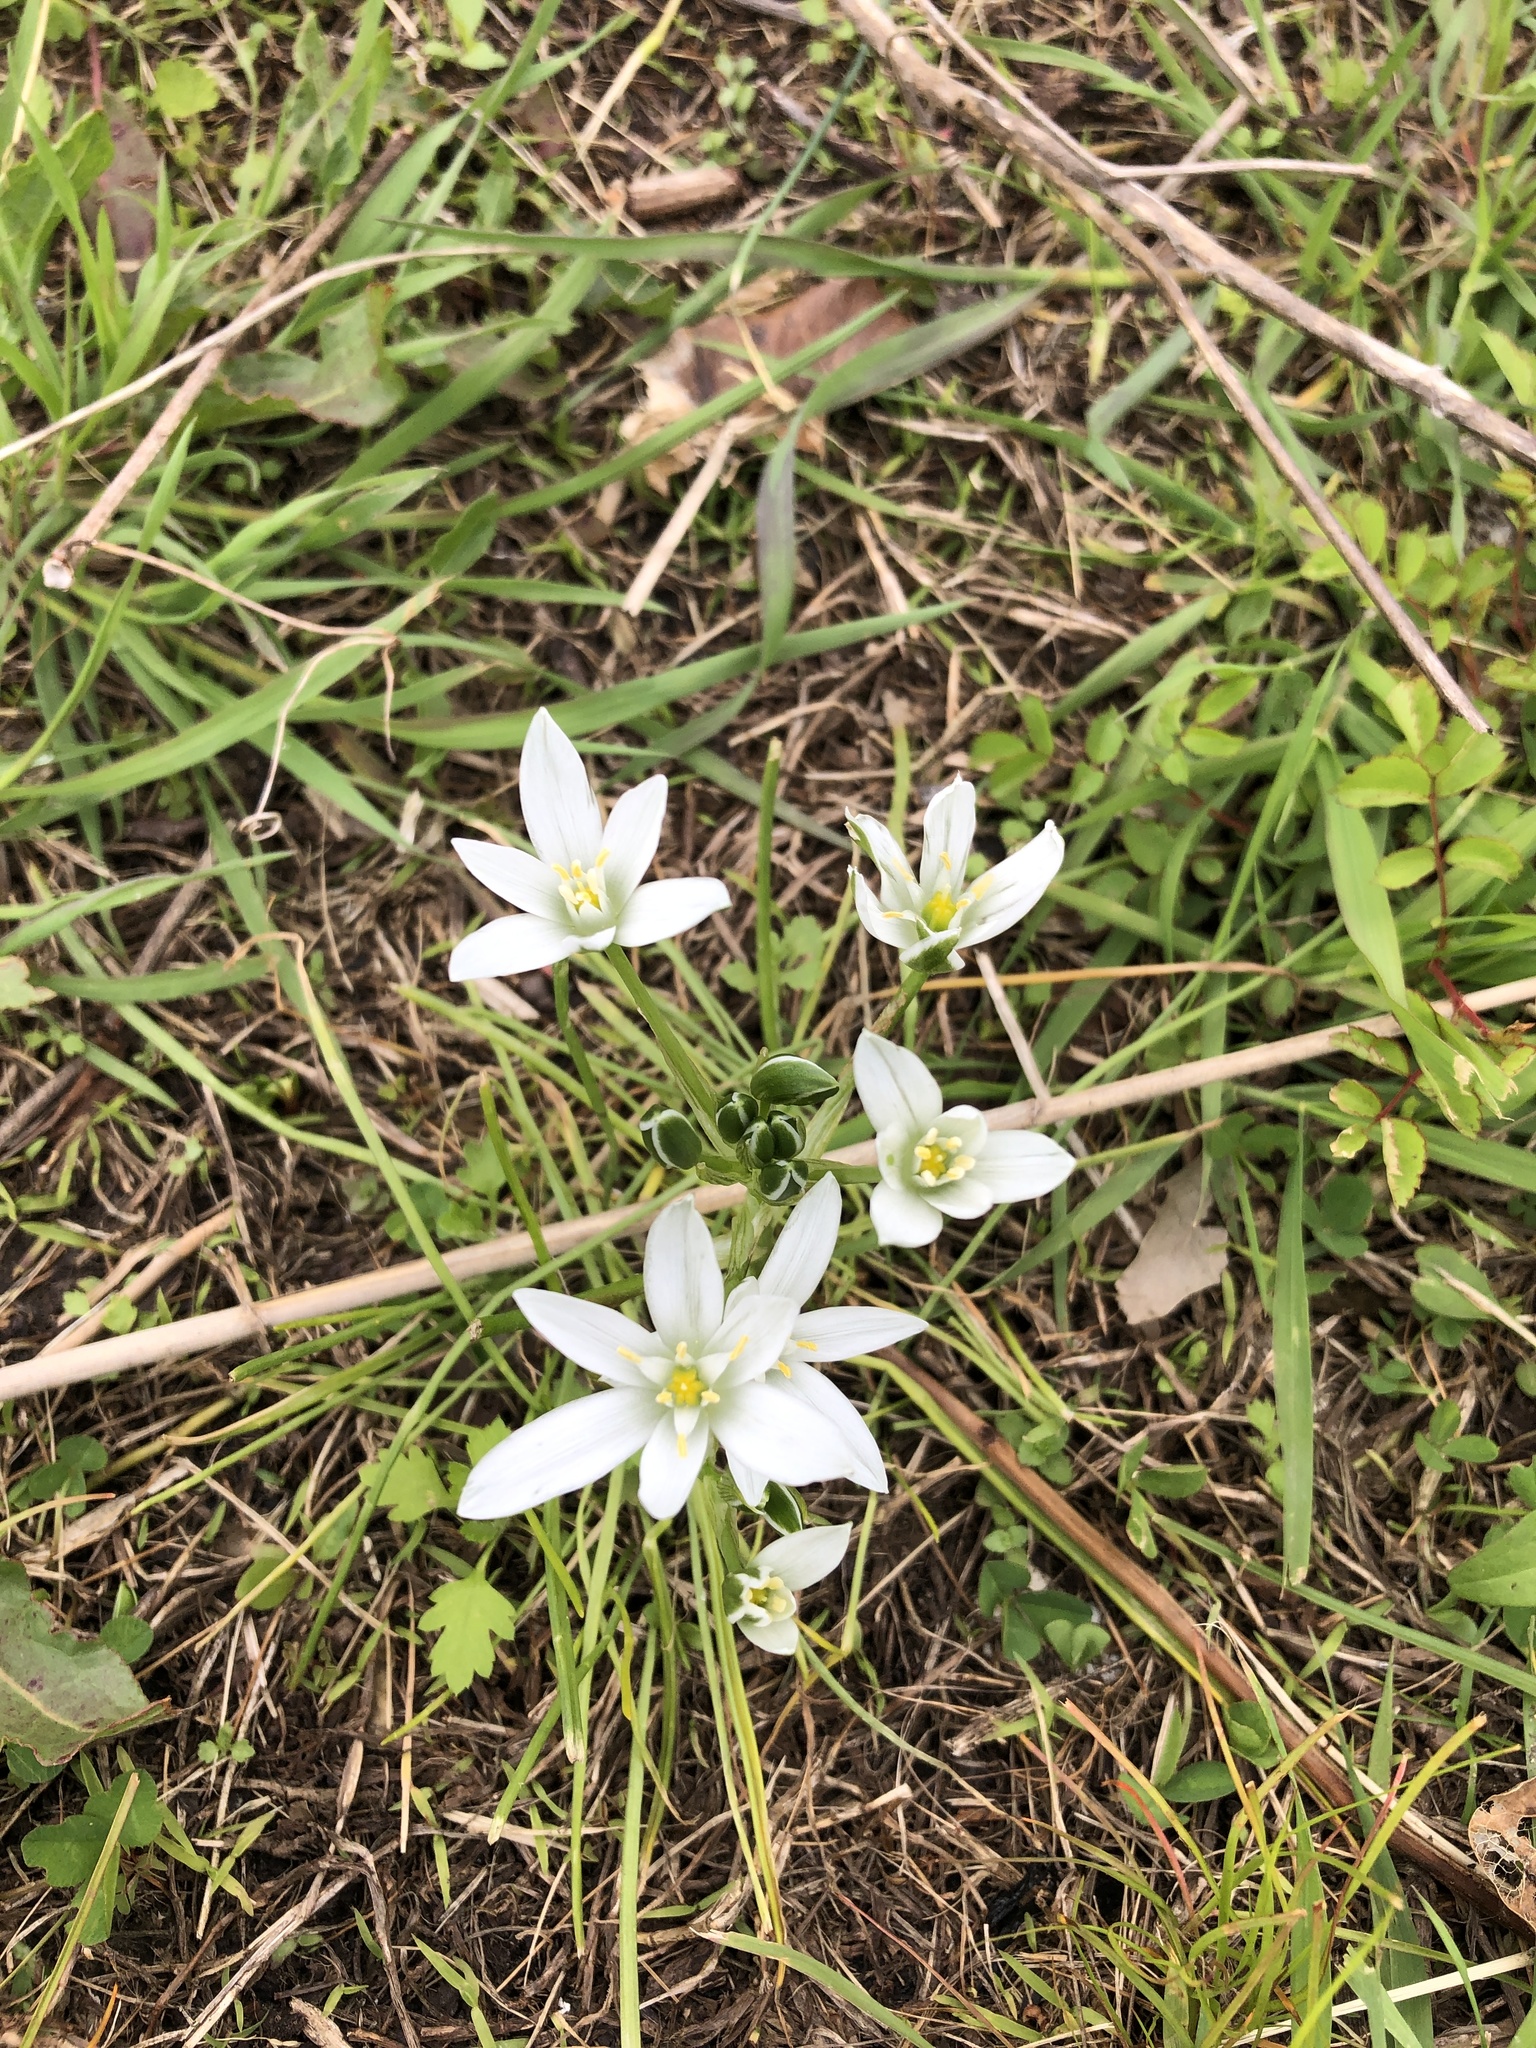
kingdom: Plantae
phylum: Tracheophyta
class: Liliopsida
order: Asparagales
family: Asparagaceae
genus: Ornithogalum
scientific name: Ornithogalum umbellatum
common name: Garden star-of-bethlehem
